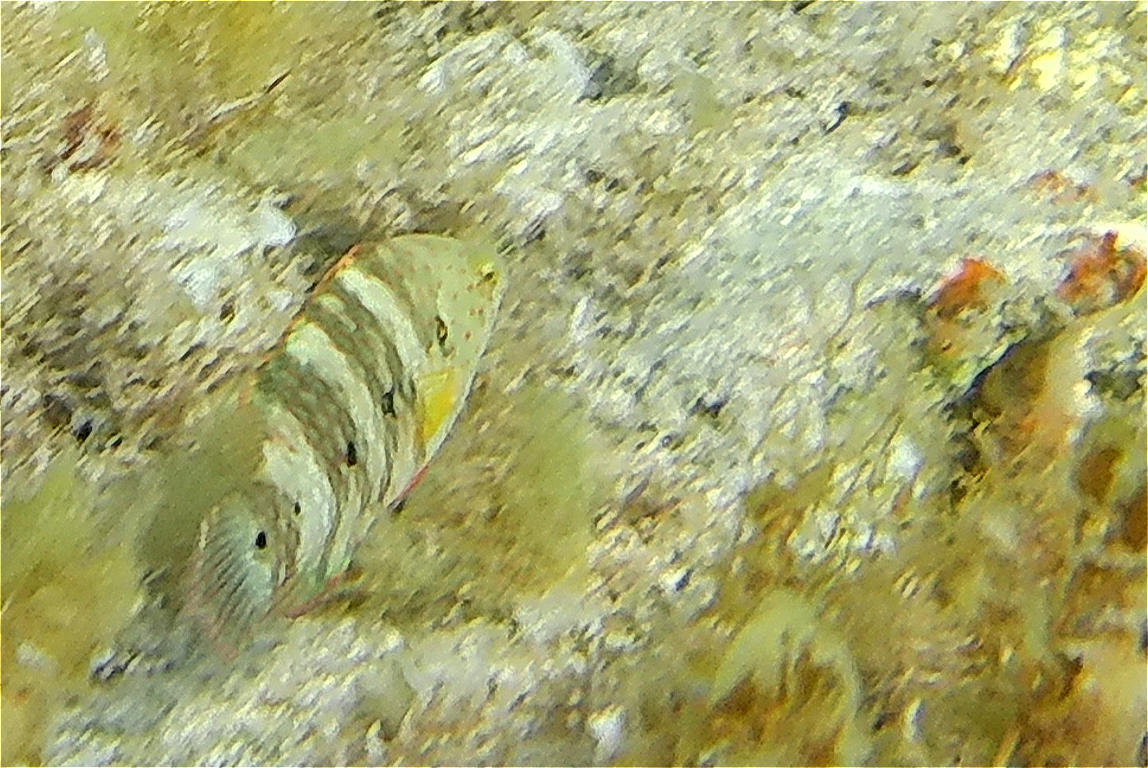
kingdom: Animalia
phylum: Chordata
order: Perciformes
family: Labridae
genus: Cheilinus
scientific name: Cheilinus lunulatus
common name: Broomtail wrasse
